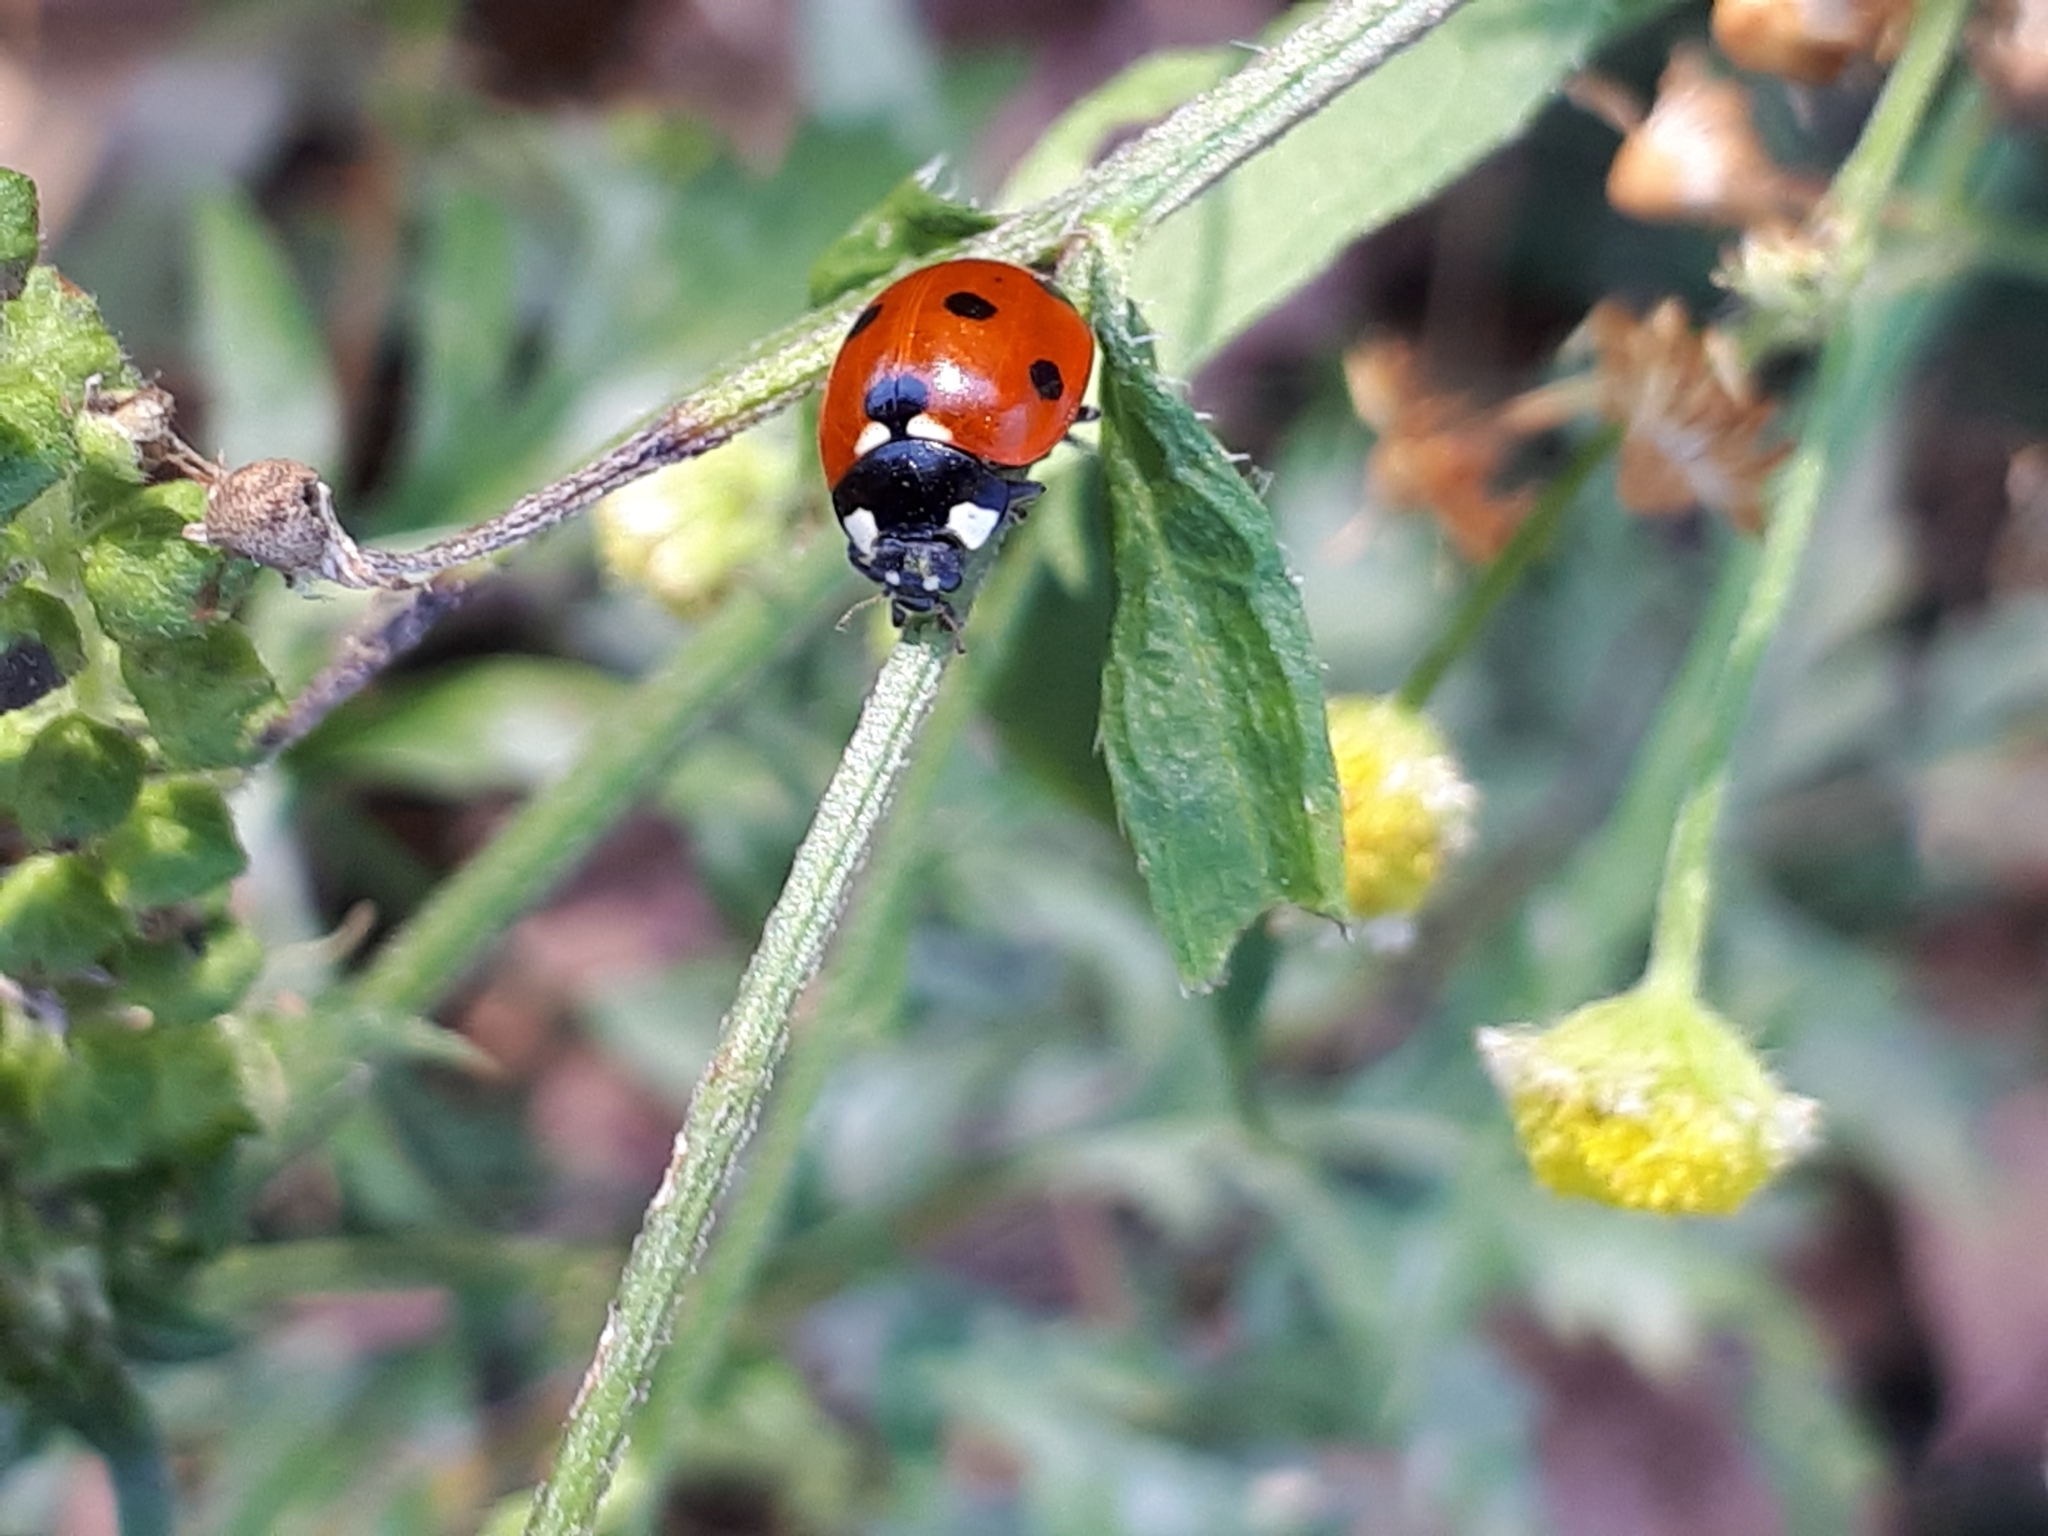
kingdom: Animalia
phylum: Arthropoda
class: Insecta
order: Coleoptera
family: Coccinellidae
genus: Coccinella
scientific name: Coccinella septempunctata
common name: Sevenspotted lady beetle
